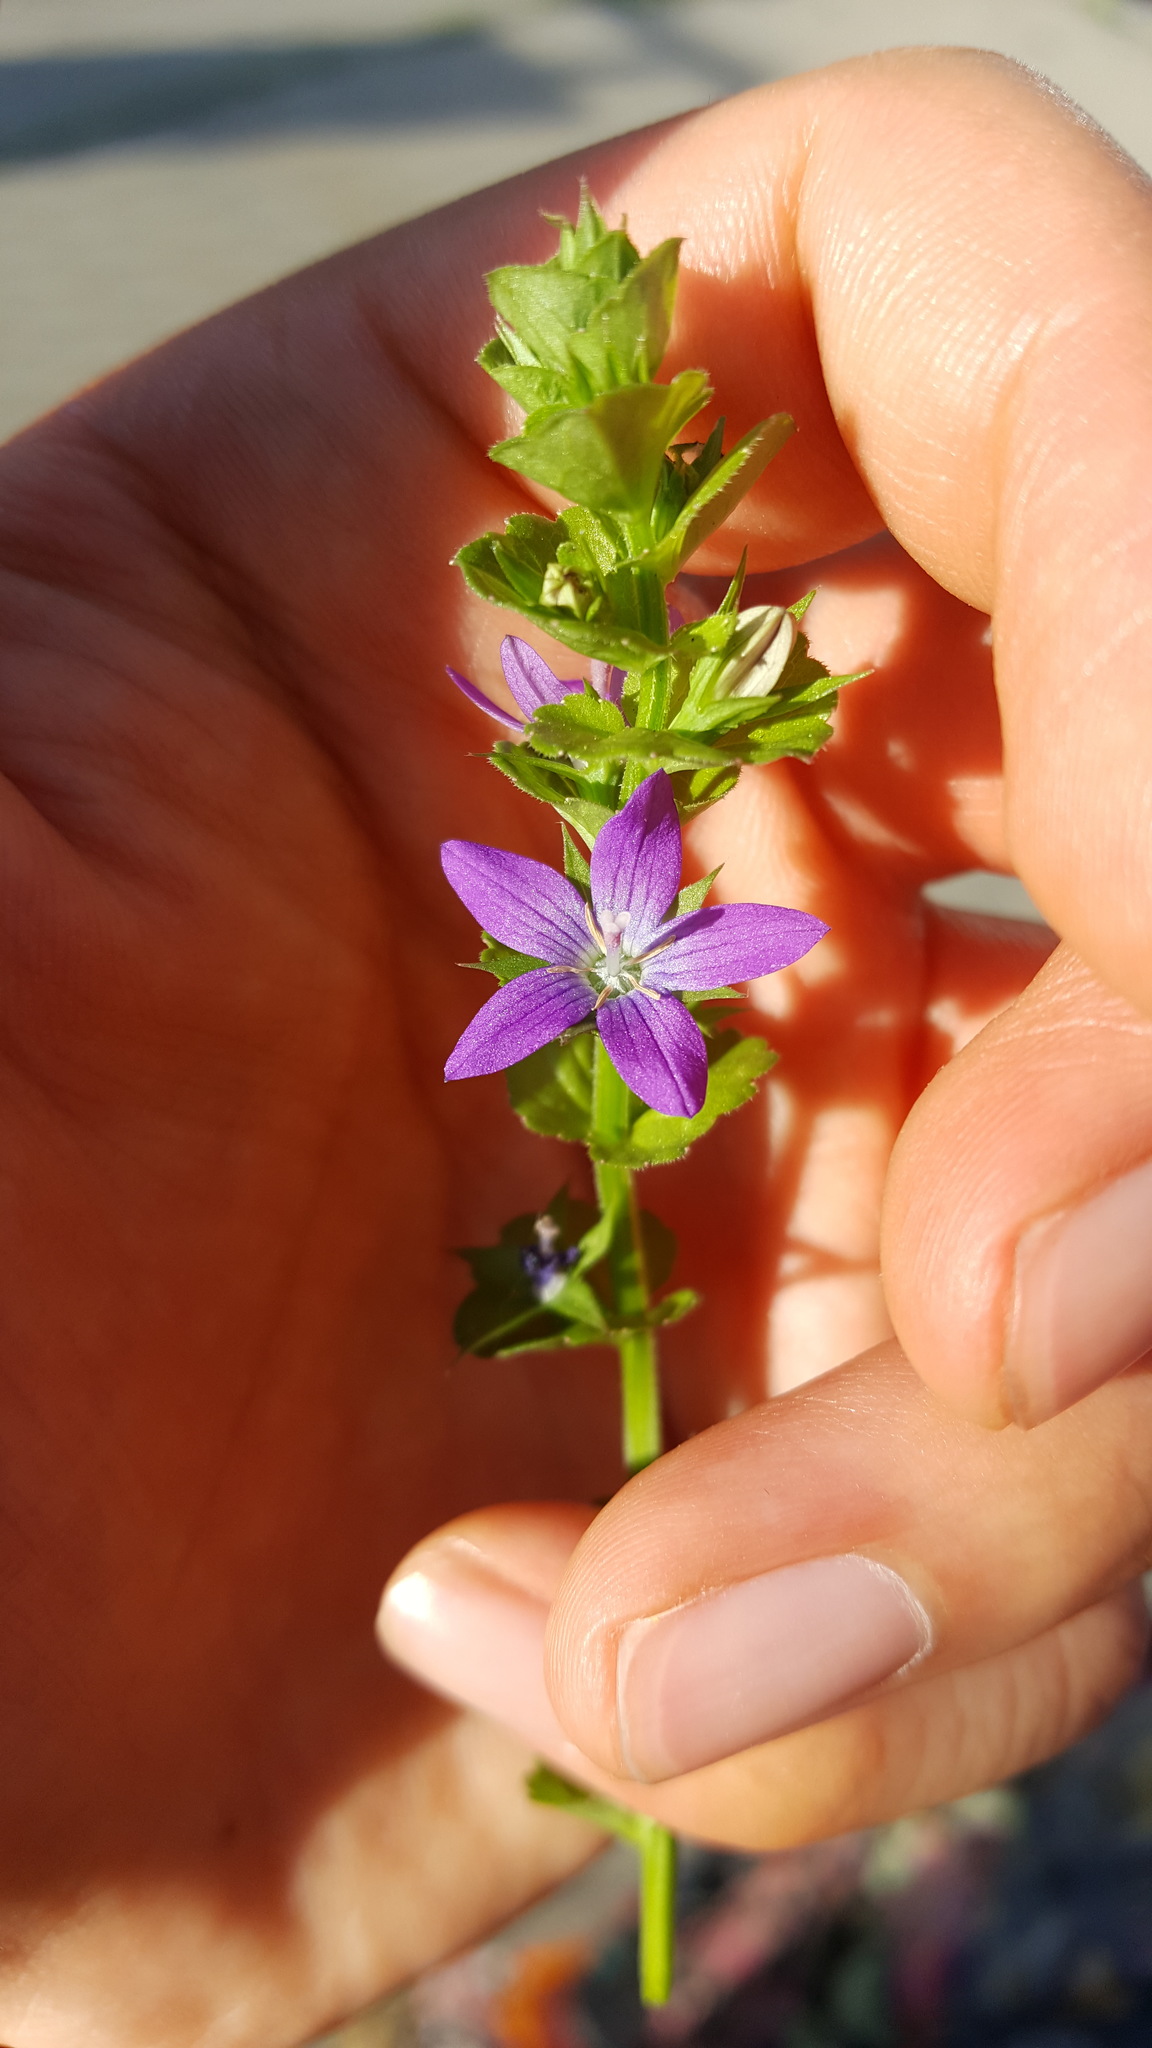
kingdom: Plantae
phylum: Tracheophyta
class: Magnoliopsida
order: Asterales
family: Campanulaceae
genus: Triodanis
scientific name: Triodanis perfoliata
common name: Clasping venus' looking-glass
